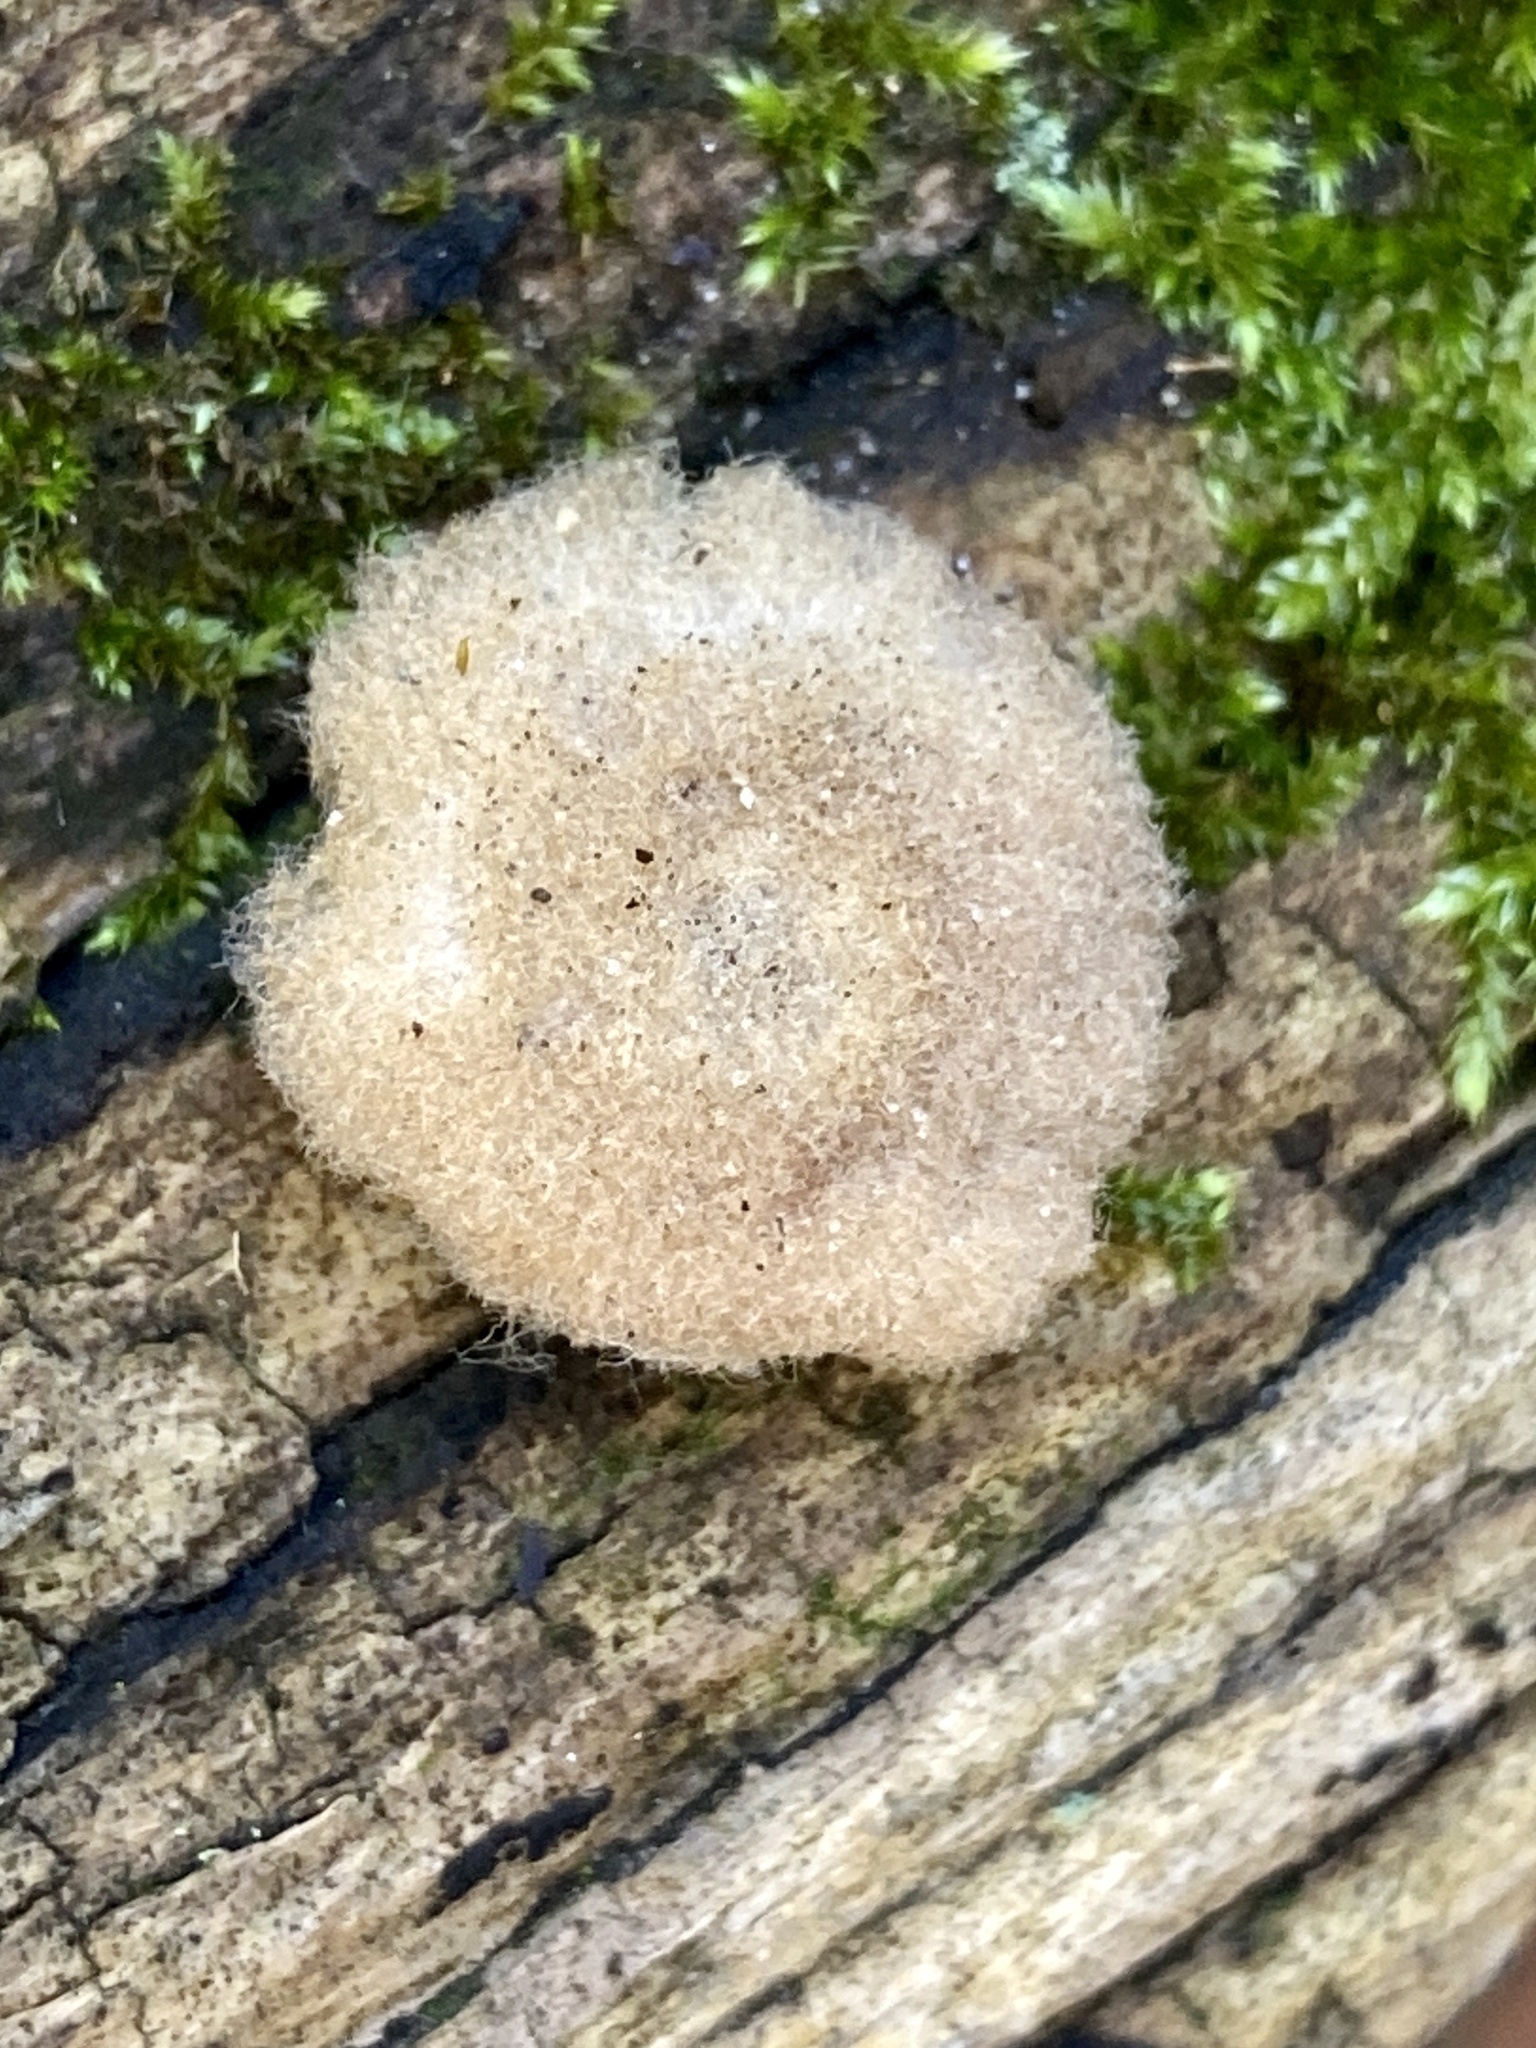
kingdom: Animalia
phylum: Arthropoda
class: Insecta
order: Hymenoptera
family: Cynipidae
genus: Callirhytis
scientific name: Callirhytis
